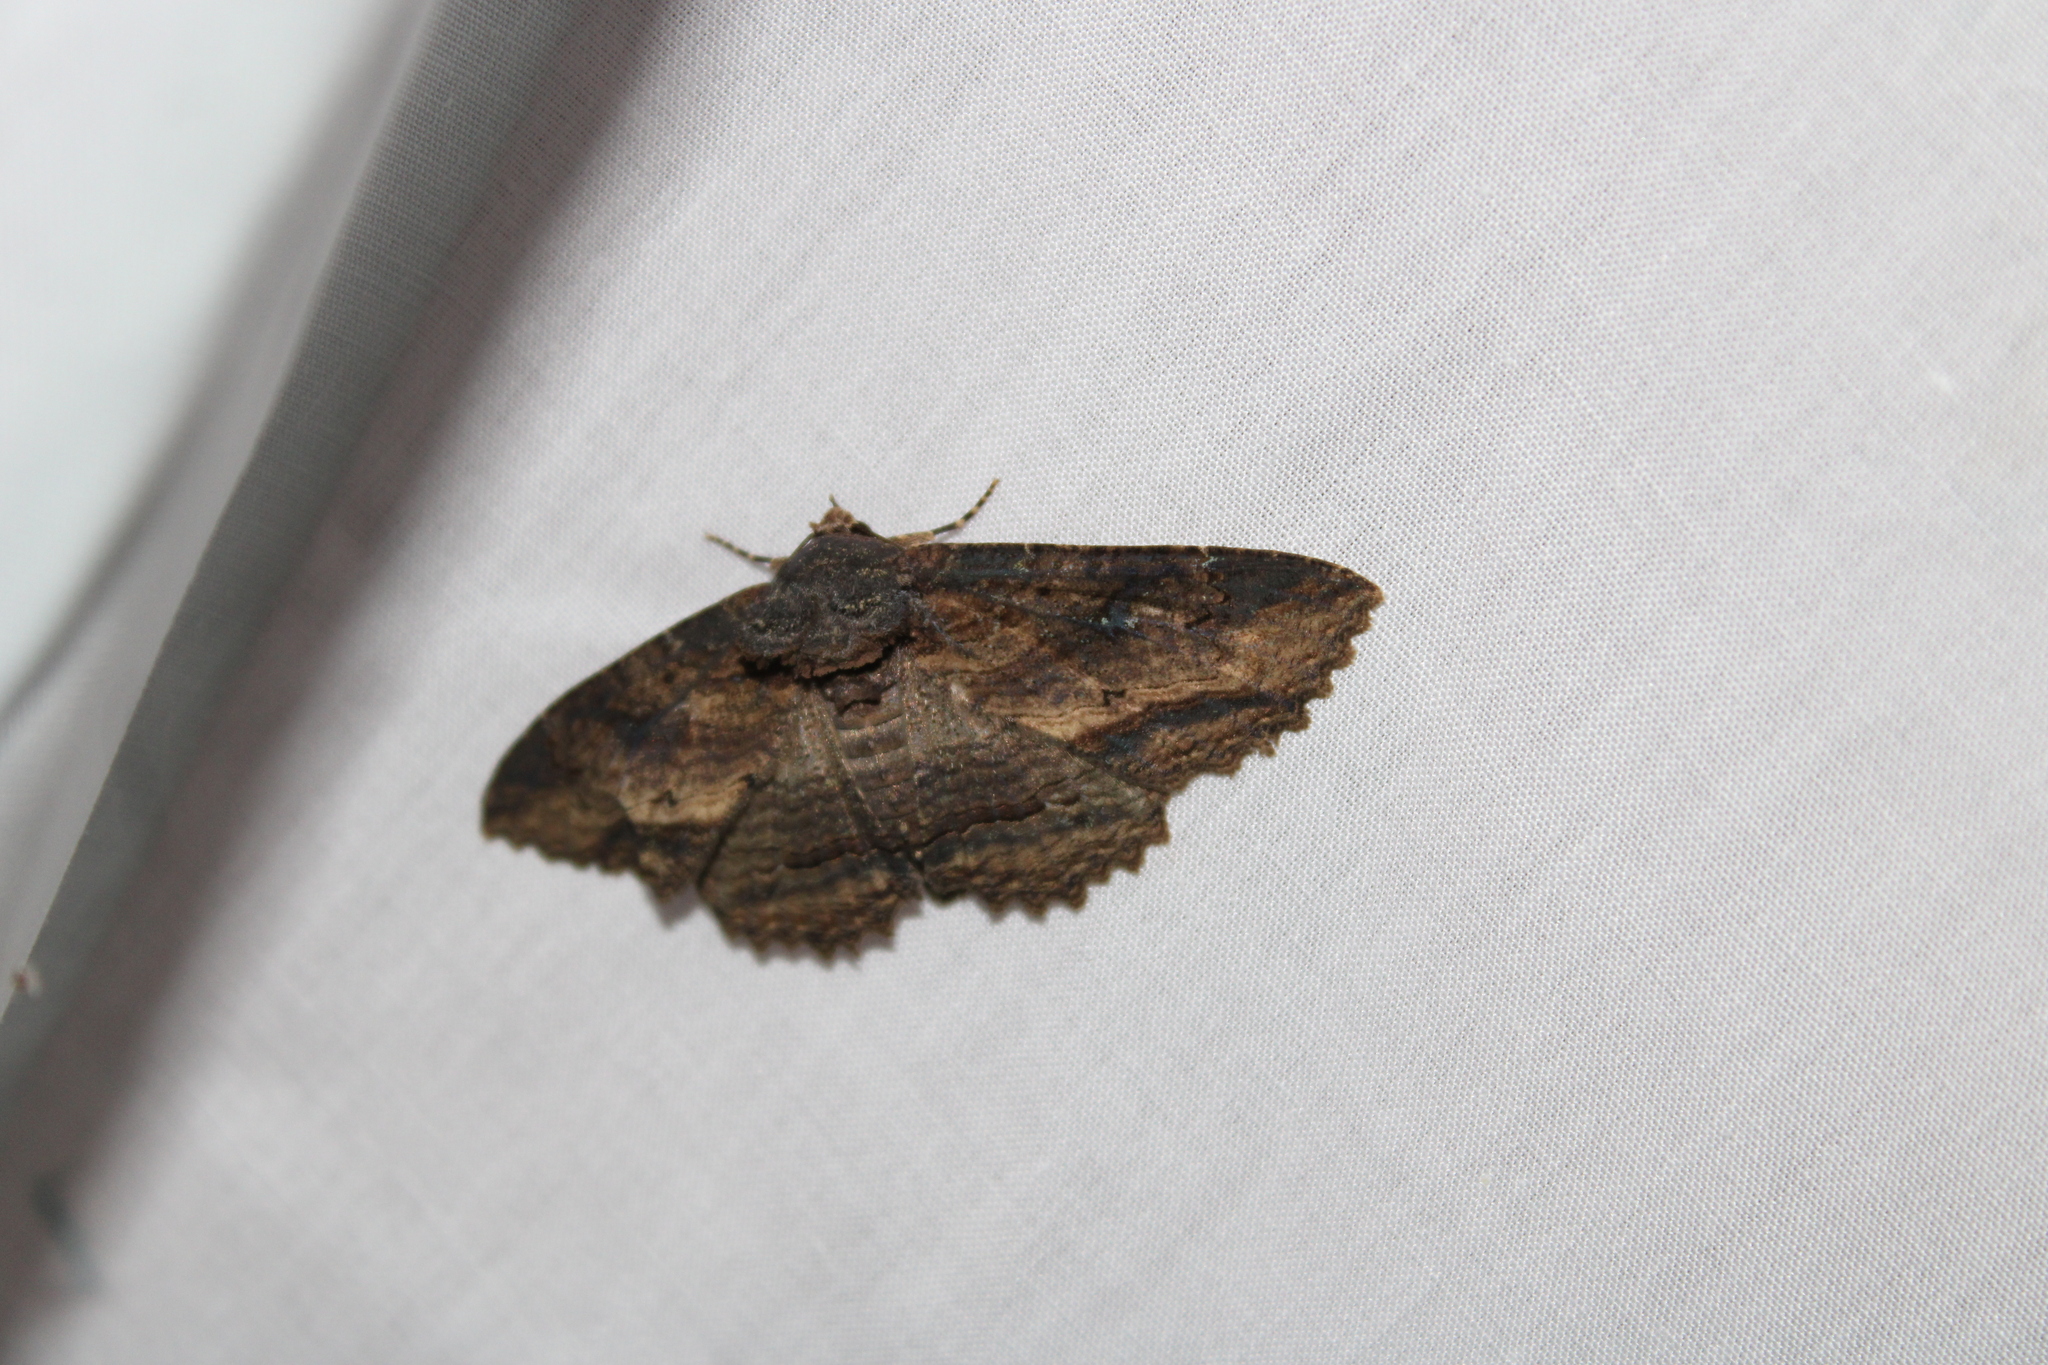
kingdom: Animalia
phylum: Arthropoda
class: Insecta
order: Lepidoptera
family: Erebidae
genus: Zale
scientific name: Zale lunata
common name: Lunate zale moth
